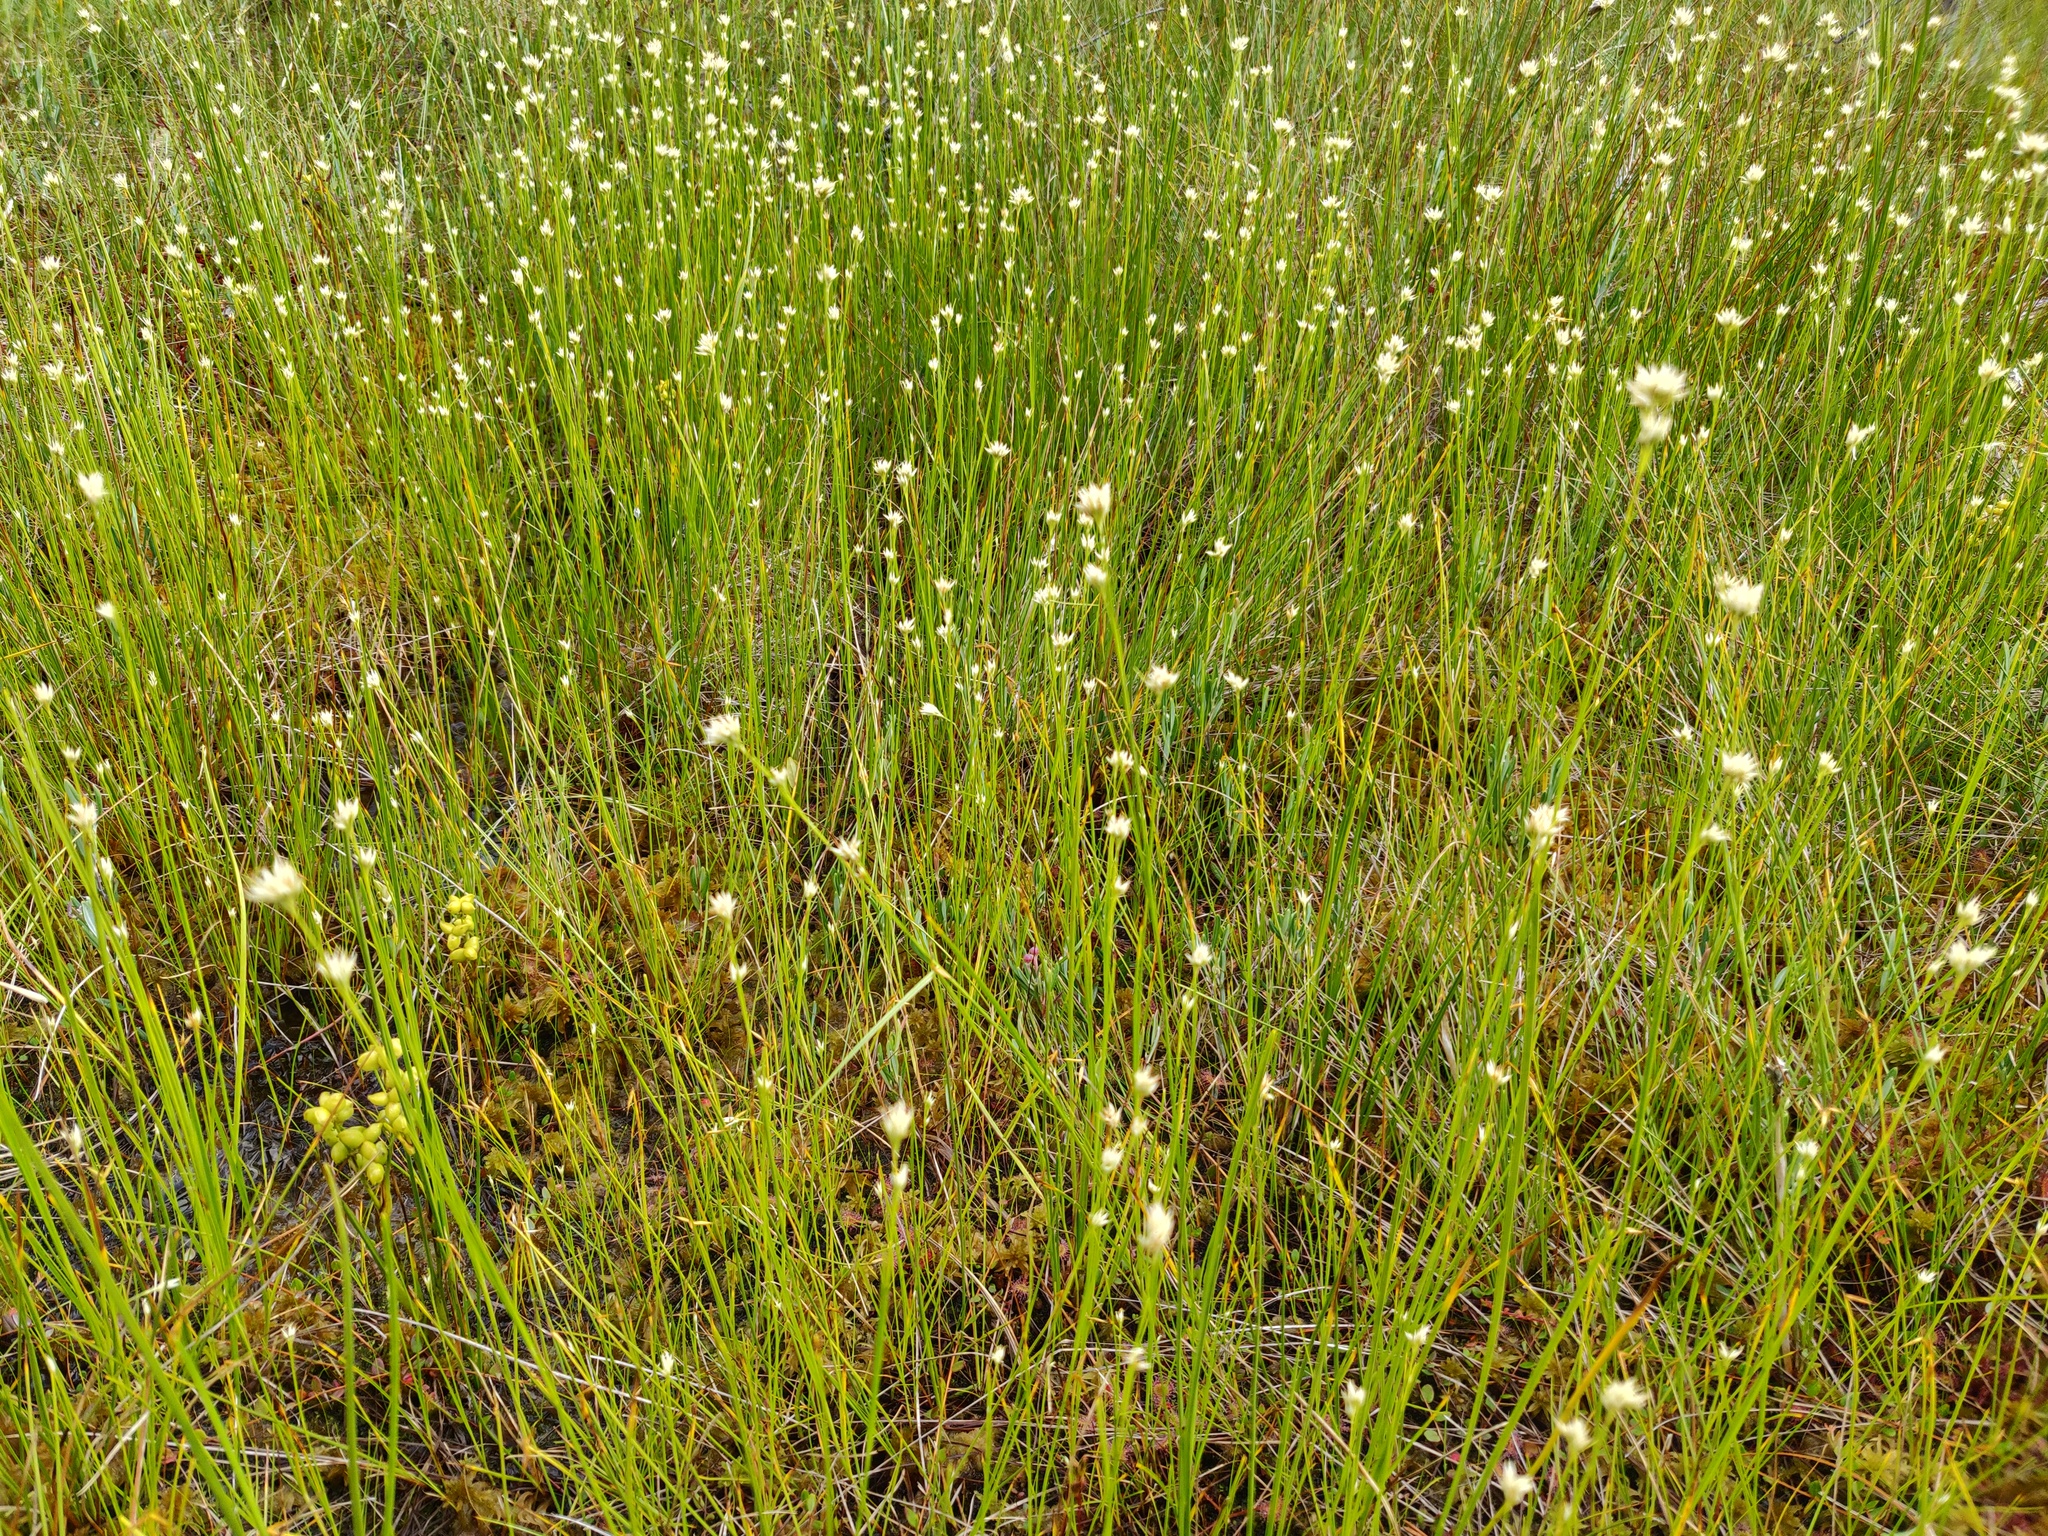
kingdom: Plantae
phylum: Tracheophyta
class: Liliopsida
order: Poales
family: Cyperaceae
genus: Rhynchospora
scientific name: Rhynchospora alba
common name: White beak-sedge
